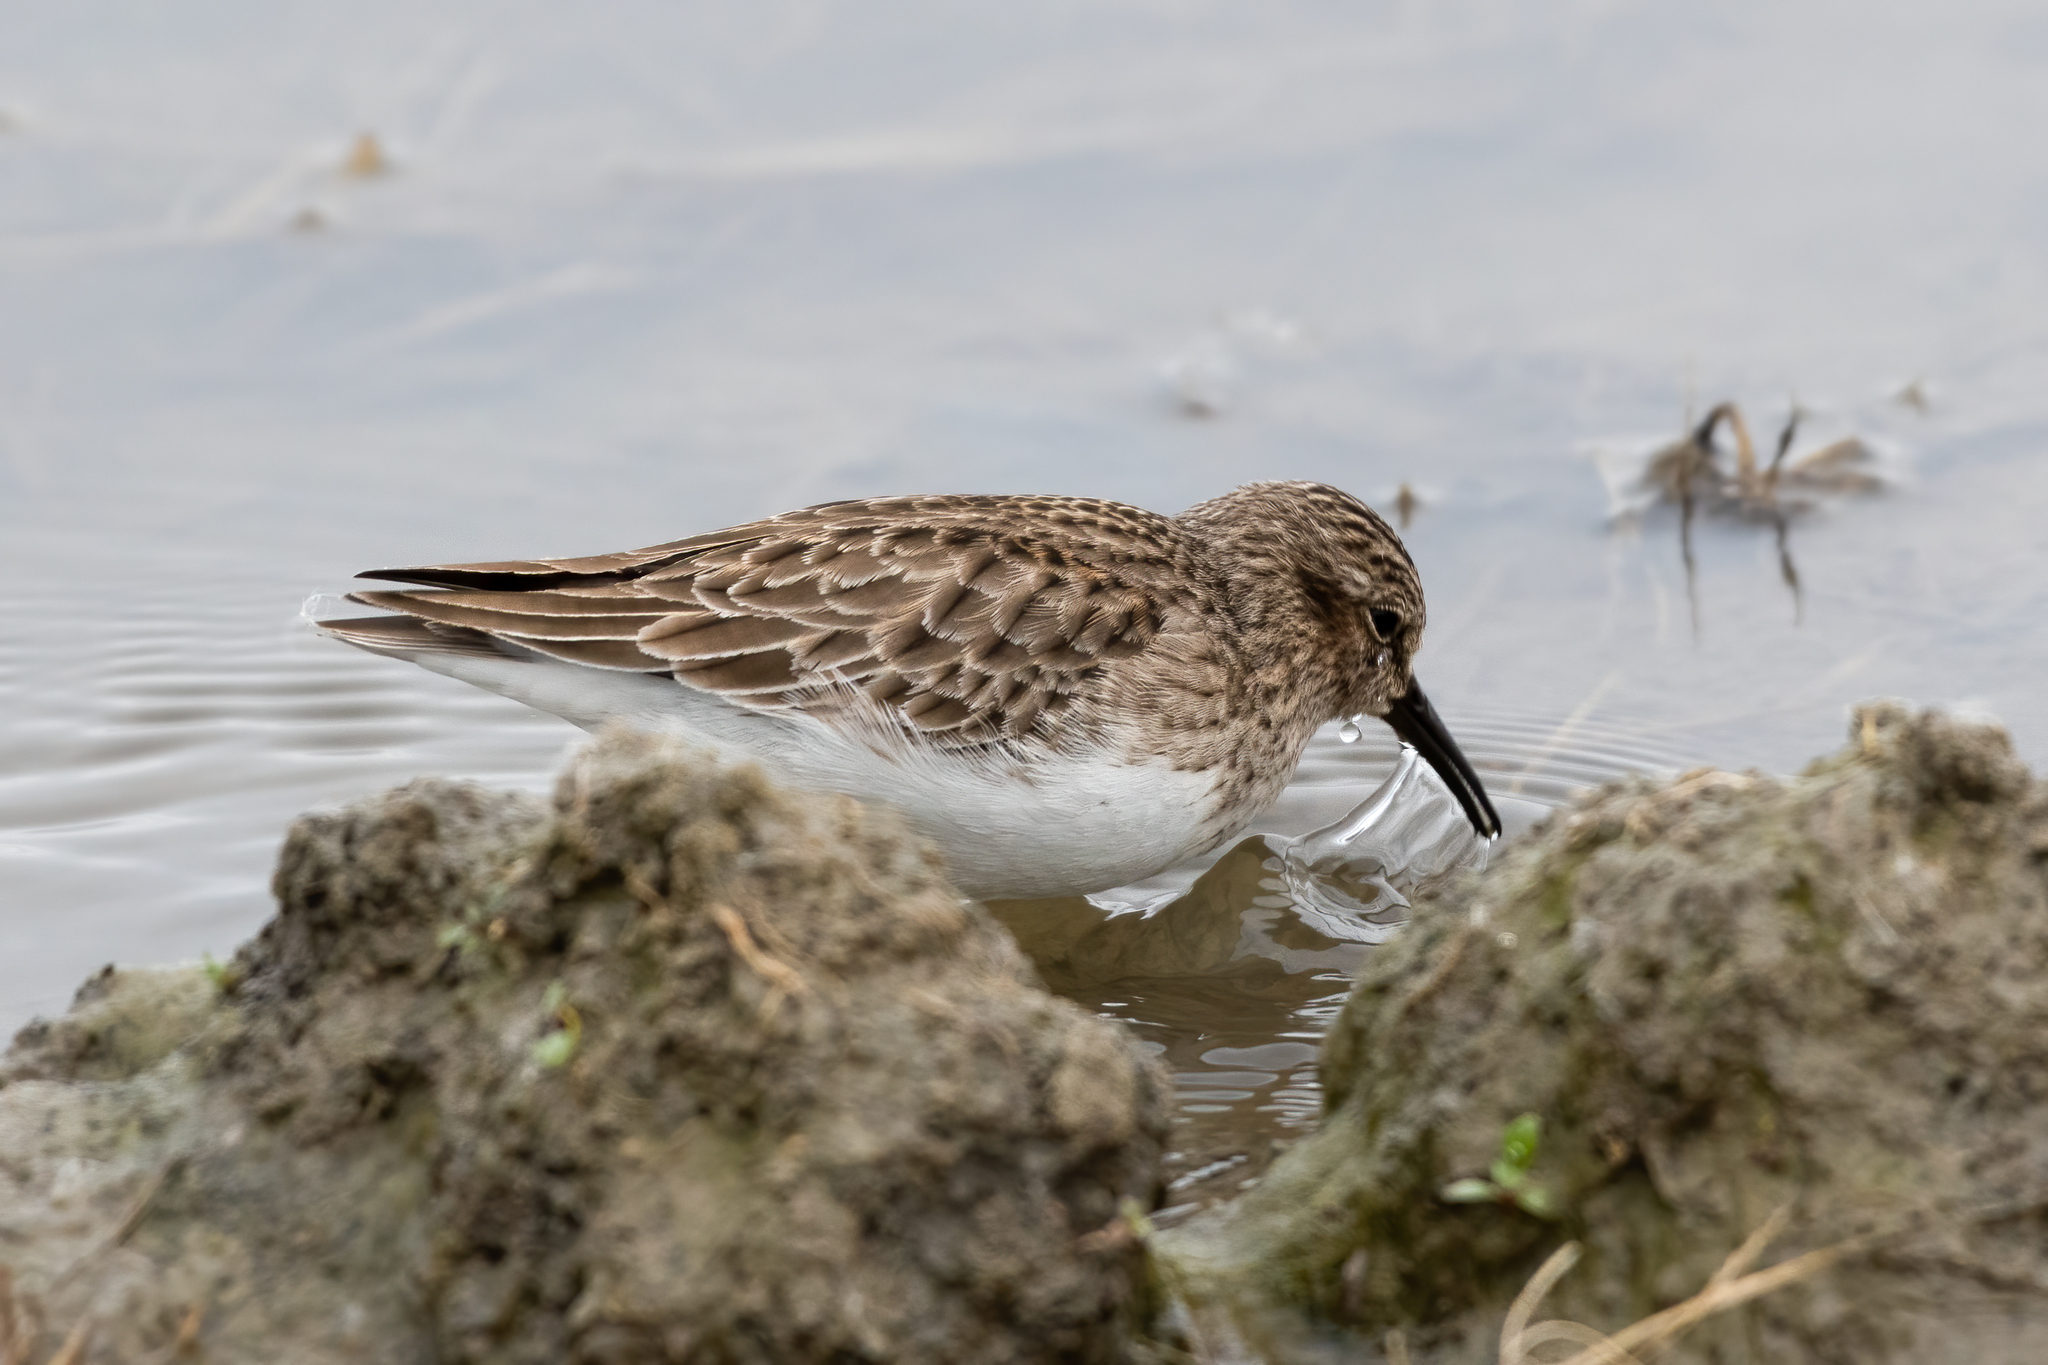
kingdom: Animalia
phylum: Chordata
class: Aves
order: Charadriiformes
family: Scolopacidae
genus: Calidris
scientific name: Calidris minutilla
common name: Least sandpiper
